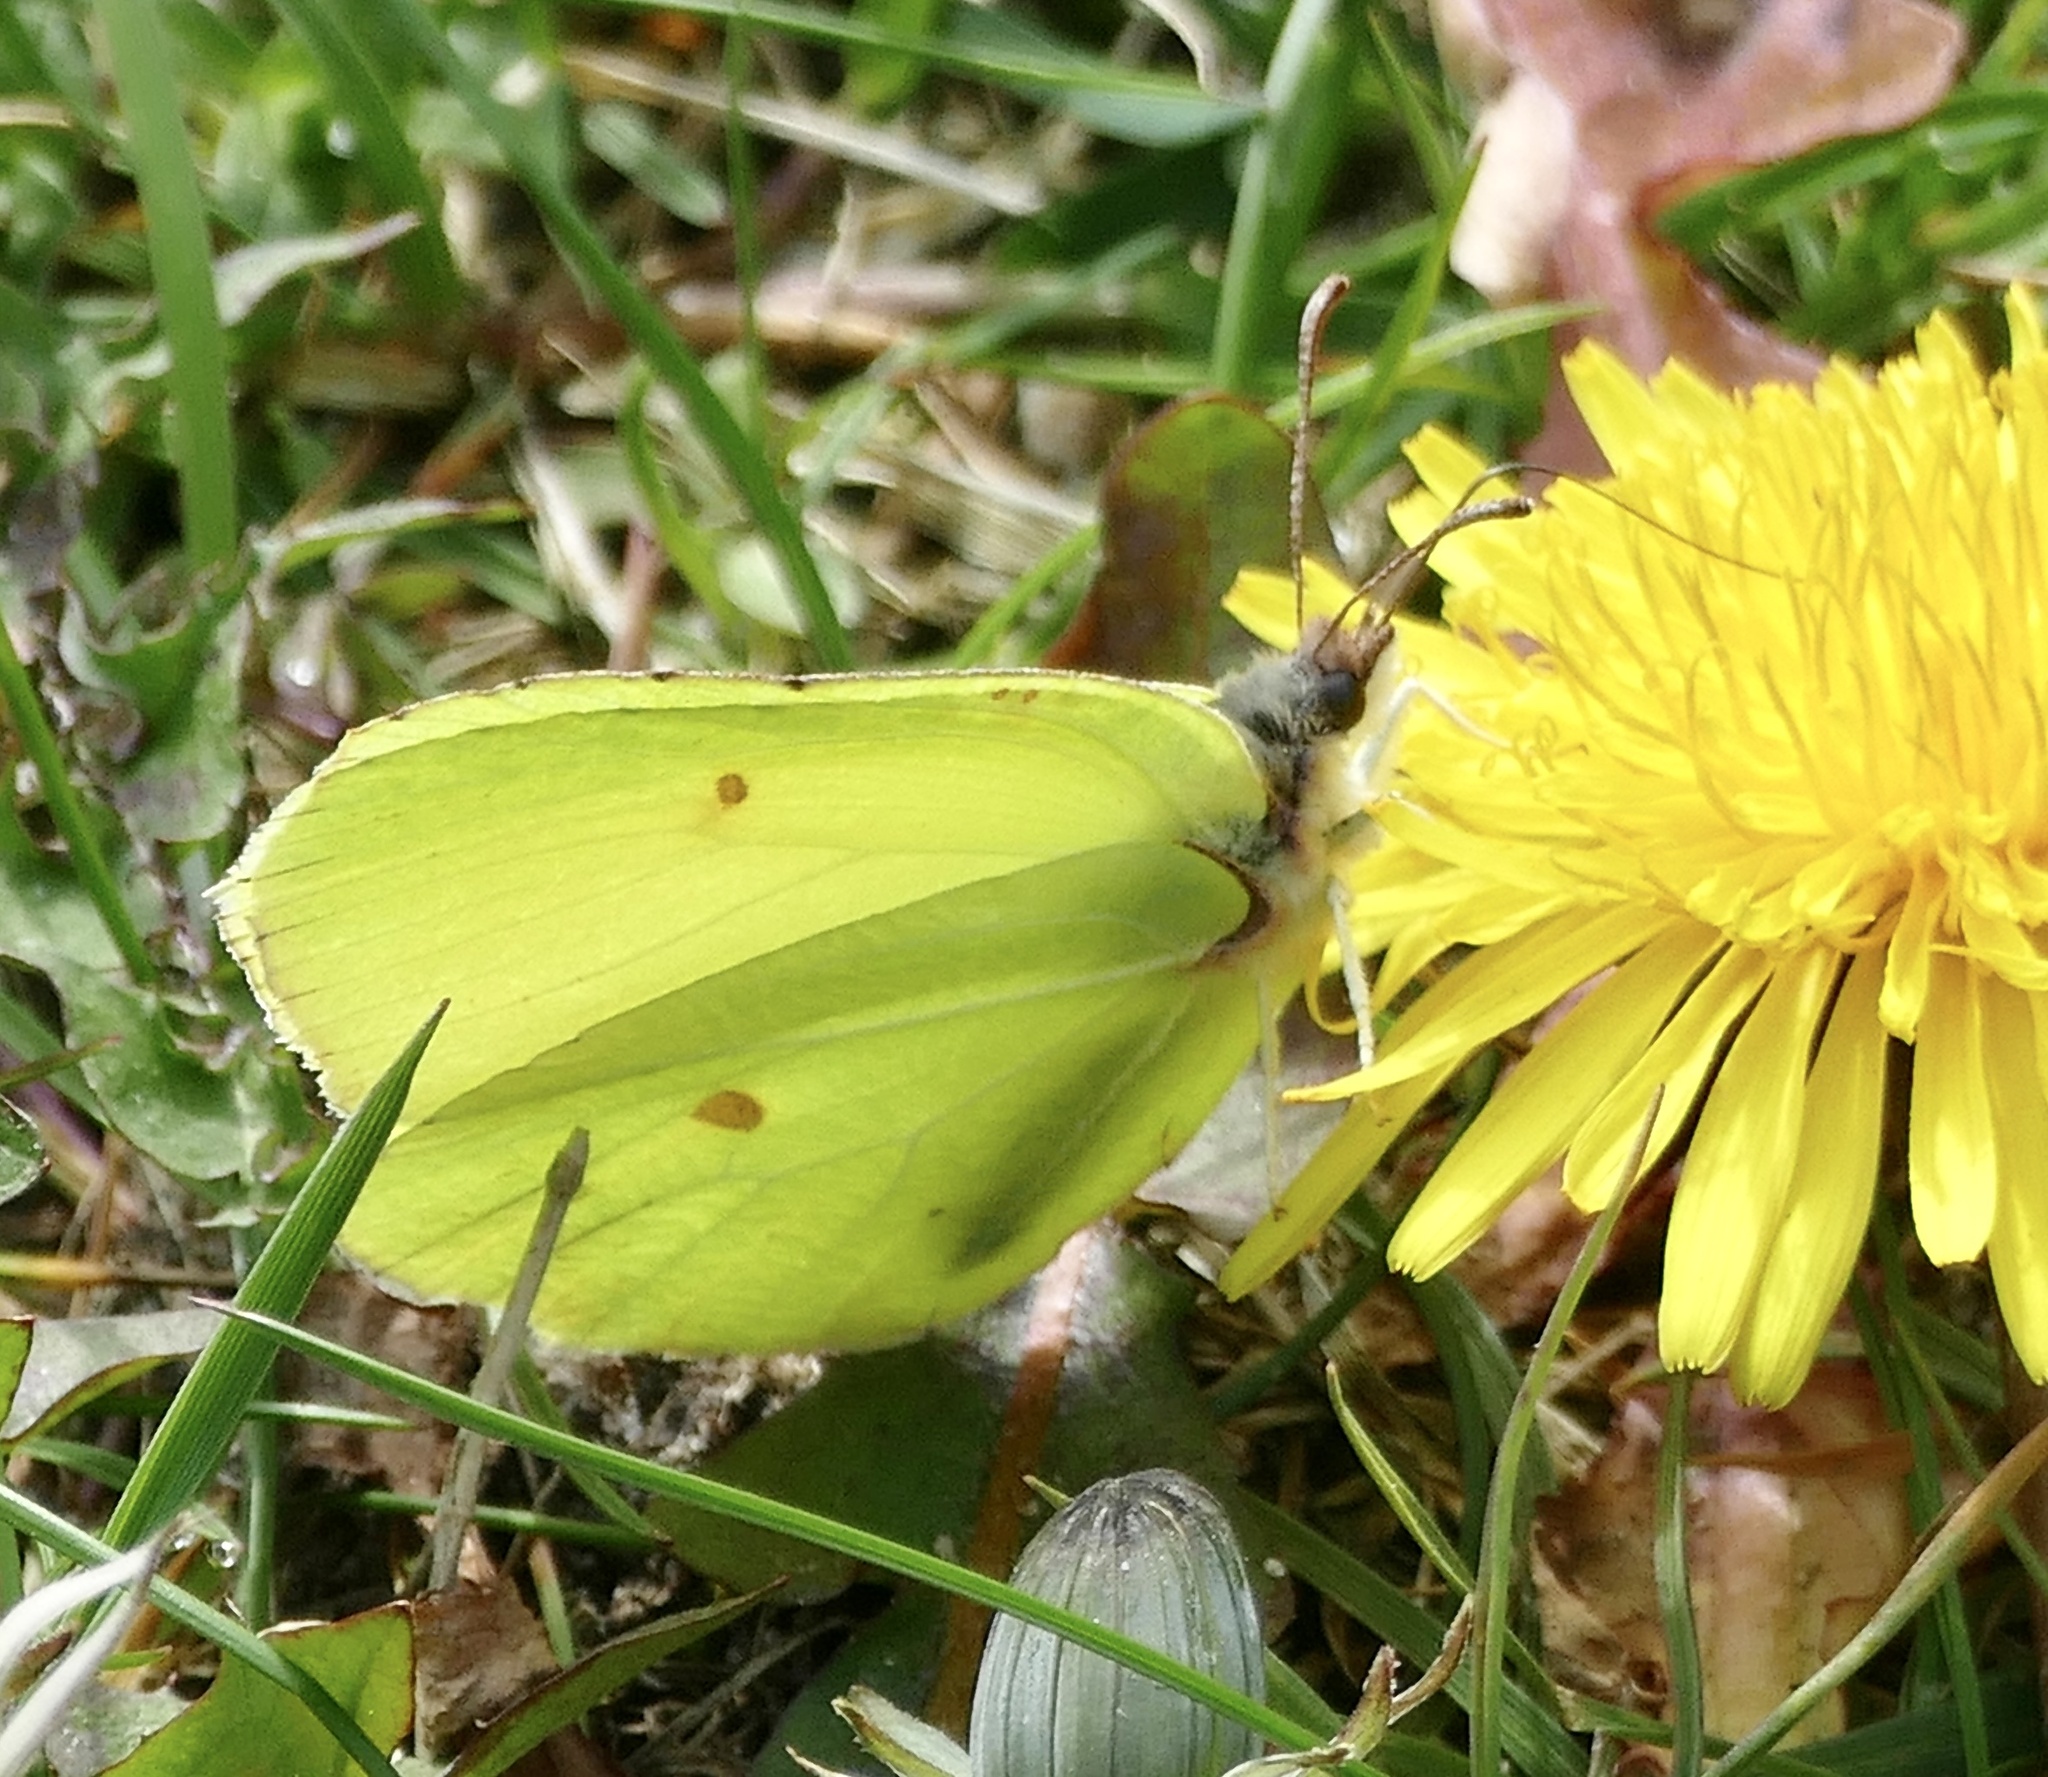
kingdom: Animalia
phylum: Arthropoda
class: Insecta
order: Lepidoptera
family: Pieridae
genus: Gonepteryx
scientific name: Gonepteryx rhamni
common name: Brimstone
